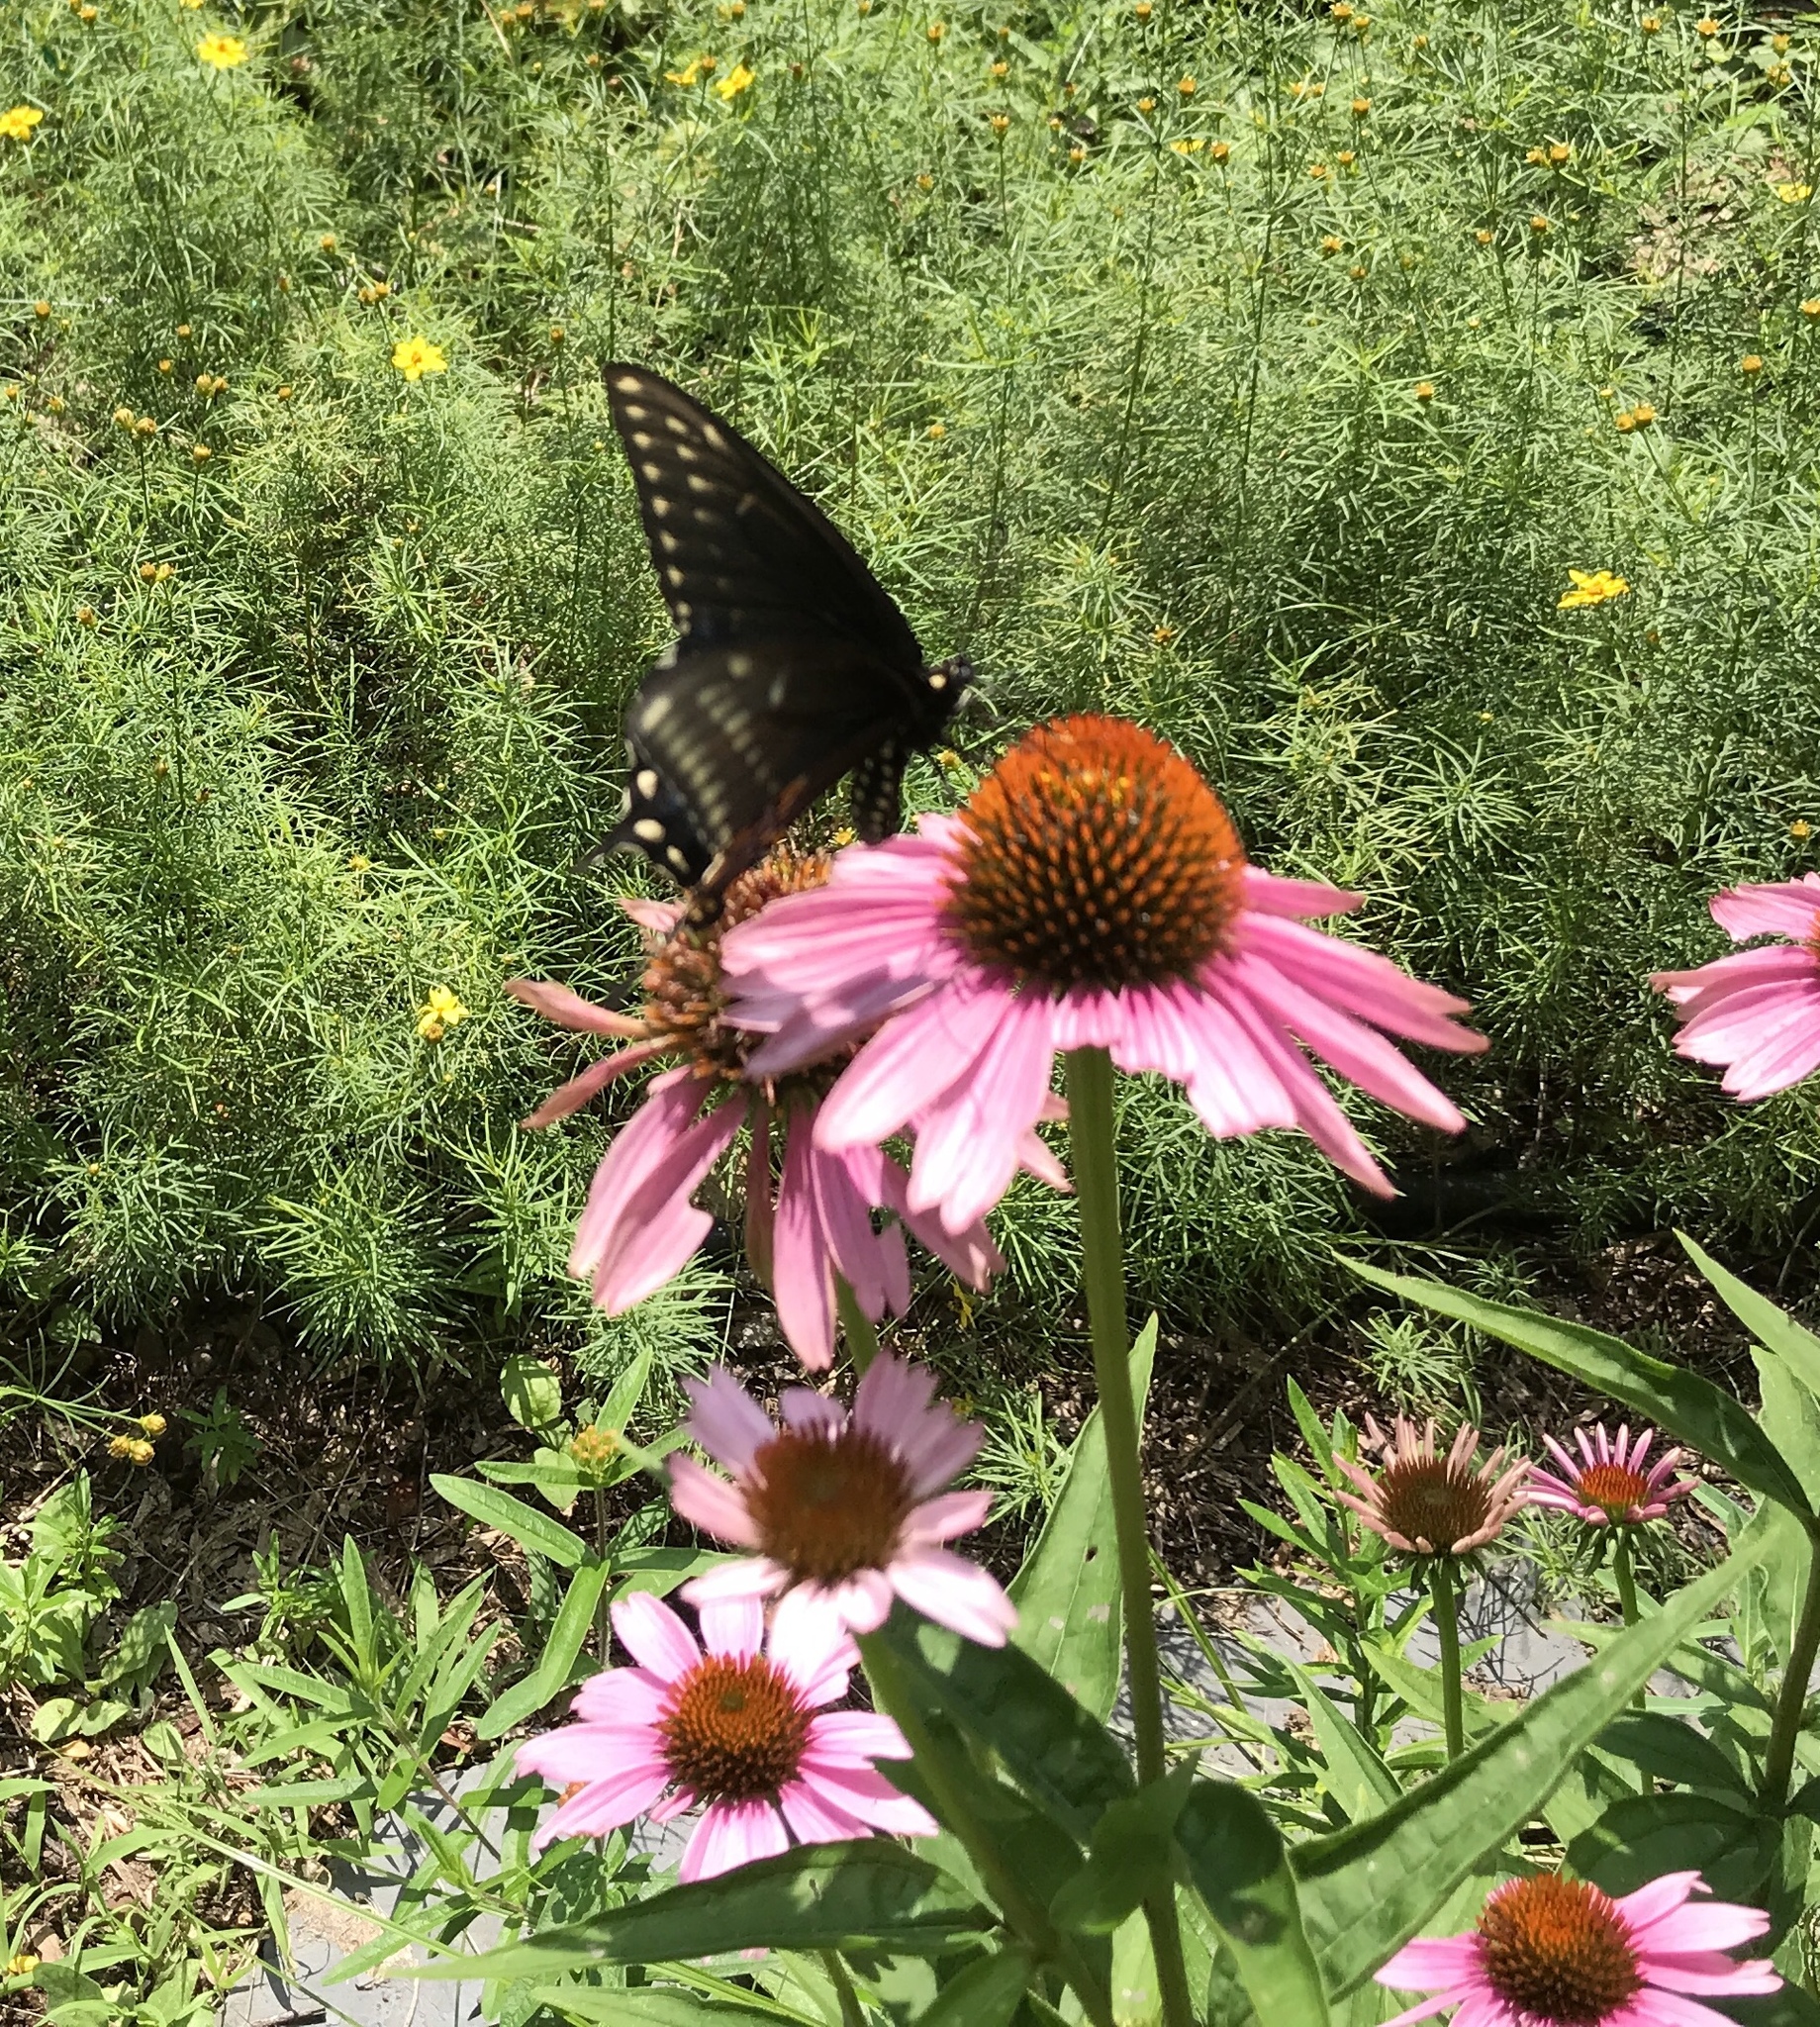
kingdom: Animalia
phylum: Arthropoda
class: Insecta
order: Lepidoptera
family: Papilionidae
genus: Papilio
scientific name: Papilio polyxenes
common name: Black swallowtail
